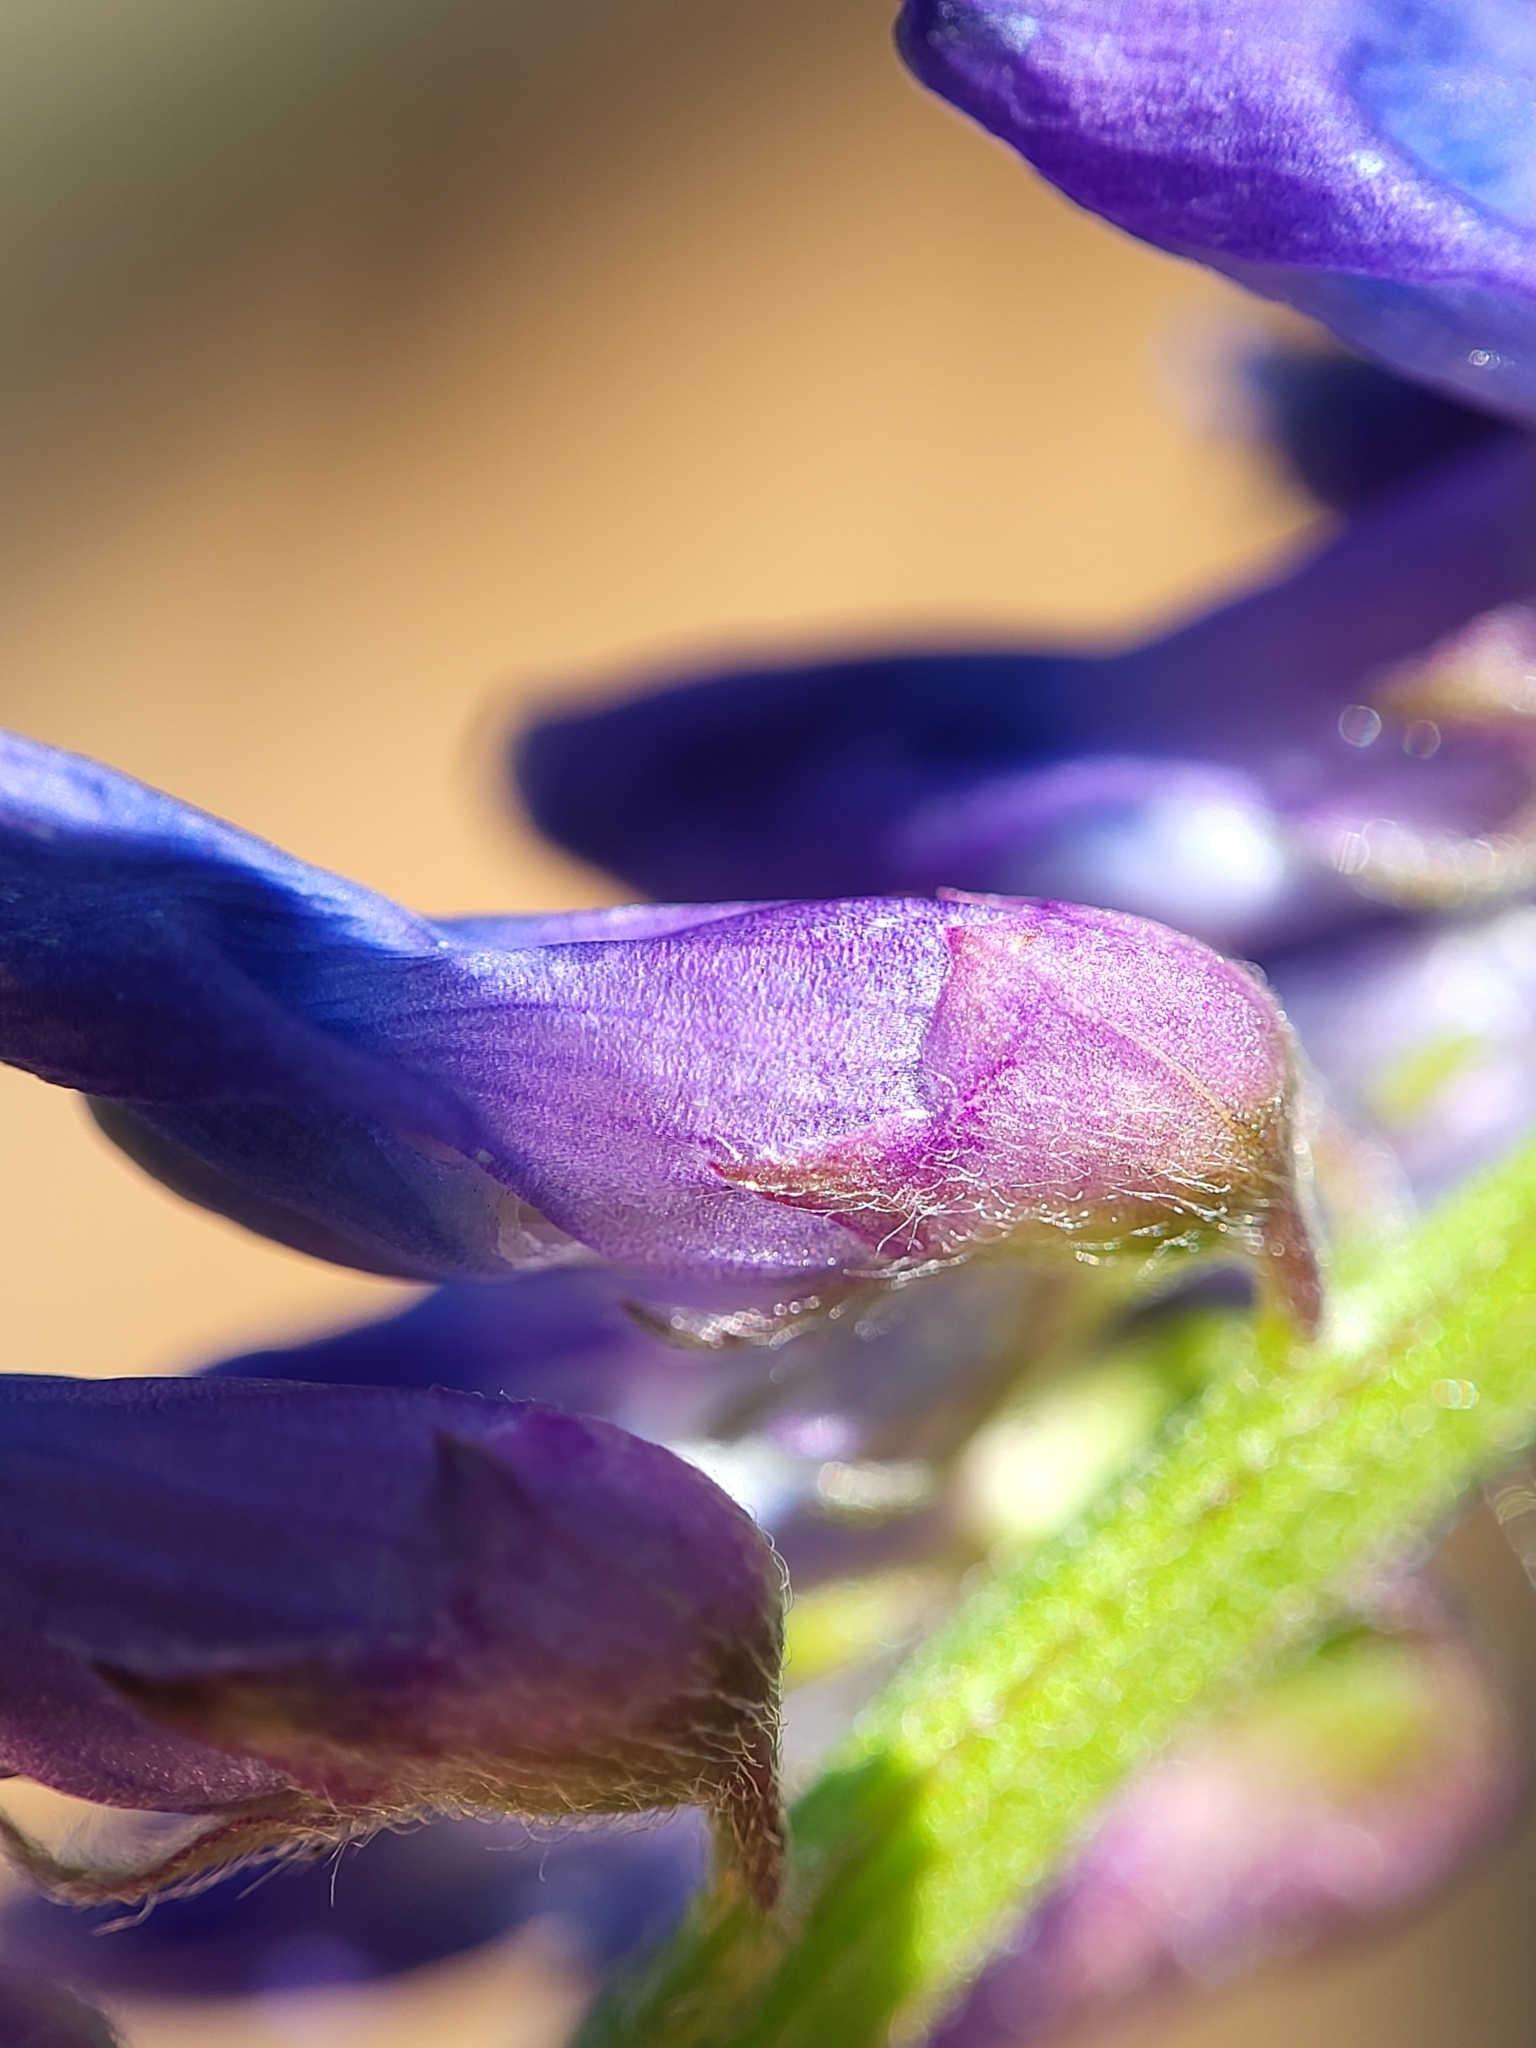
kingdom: Plantae
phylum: Tracheophyta
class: Magnoliopsida
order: Fabales
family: Fabaceae
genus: Vicia
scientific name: Vicia cracca
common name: Bird vetch
